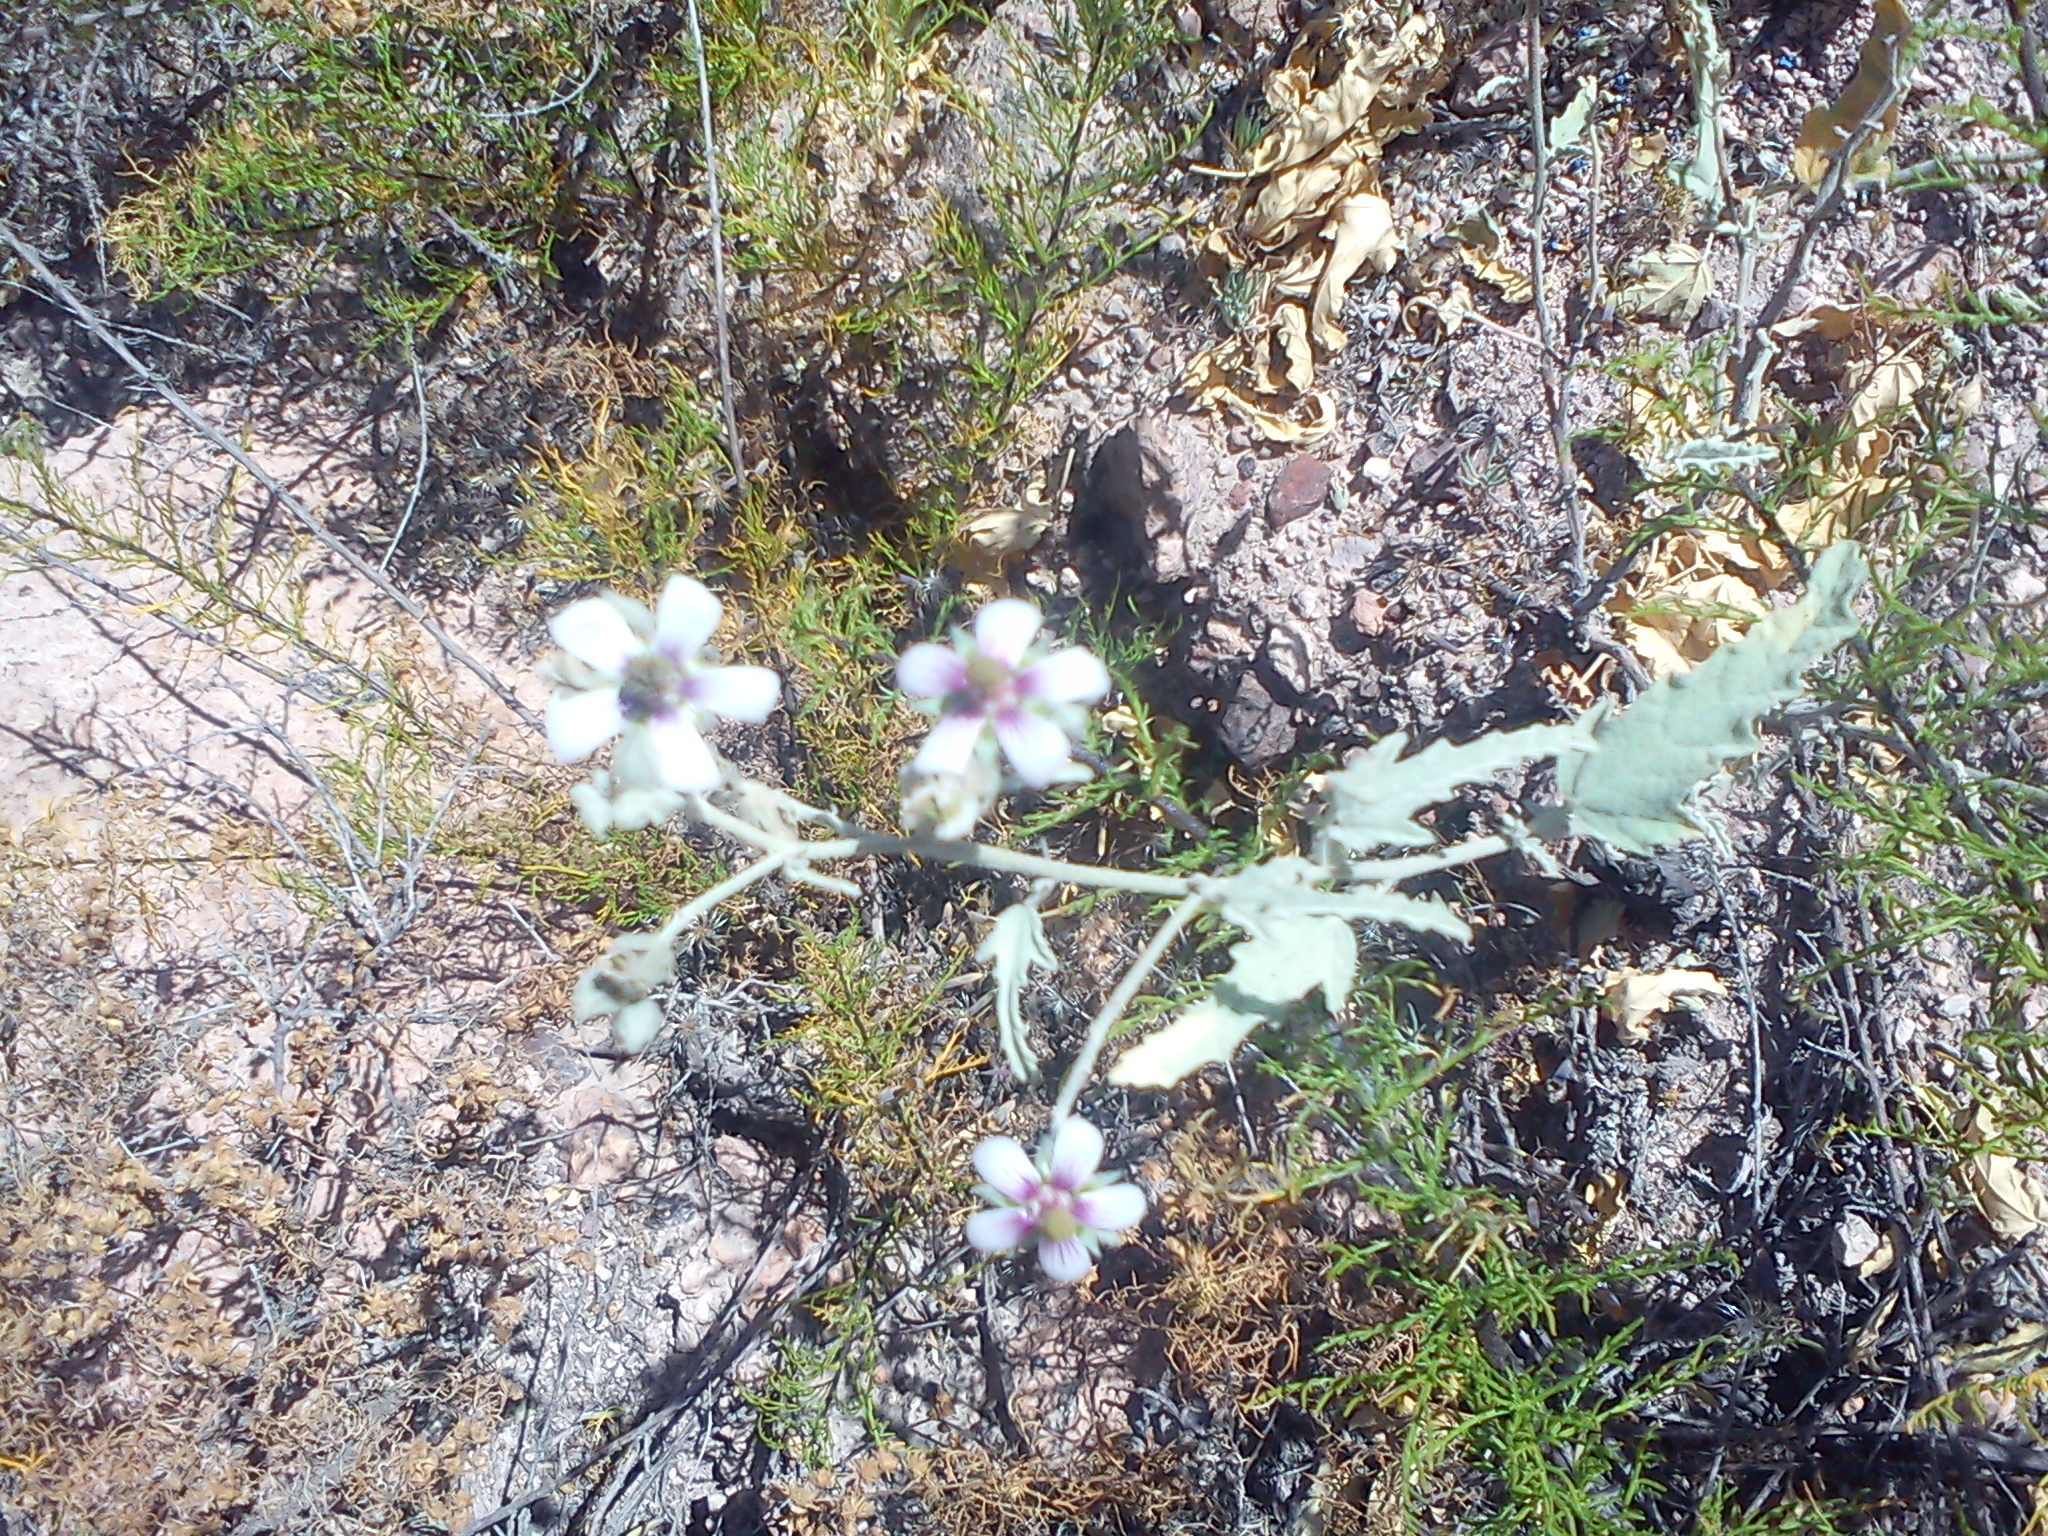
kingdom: Plantae
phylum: Tracheophyta
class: Magnoliopsida
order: Malvales
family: Malvaceae
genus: Tarasa
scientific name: Tarasa operculata
